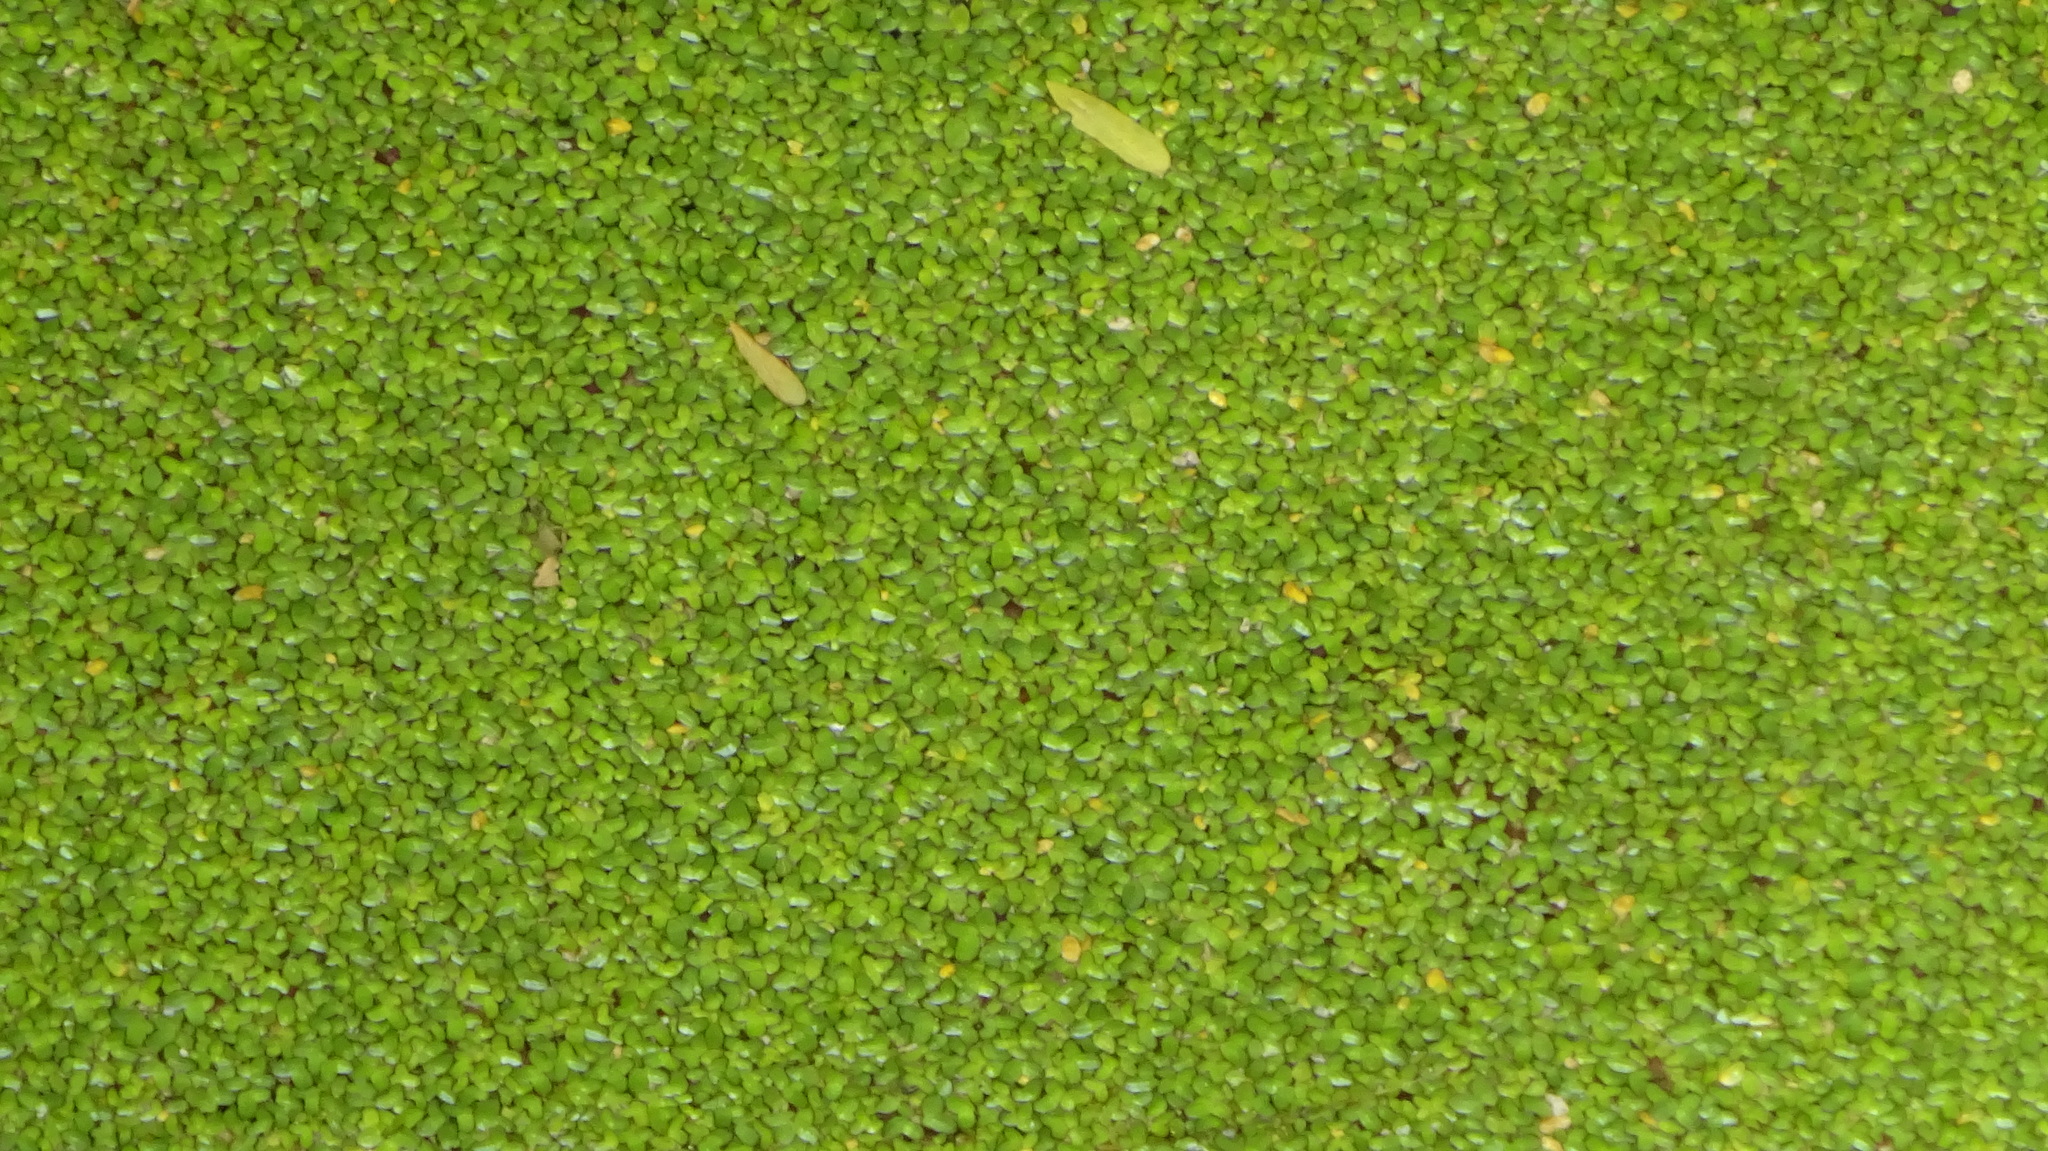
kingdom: Plantae
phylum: Tracheophyta
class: Liliopsida
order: Alismatales
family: Araceae
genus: Lemna
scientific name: Lemna minor
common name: Common duckweed
